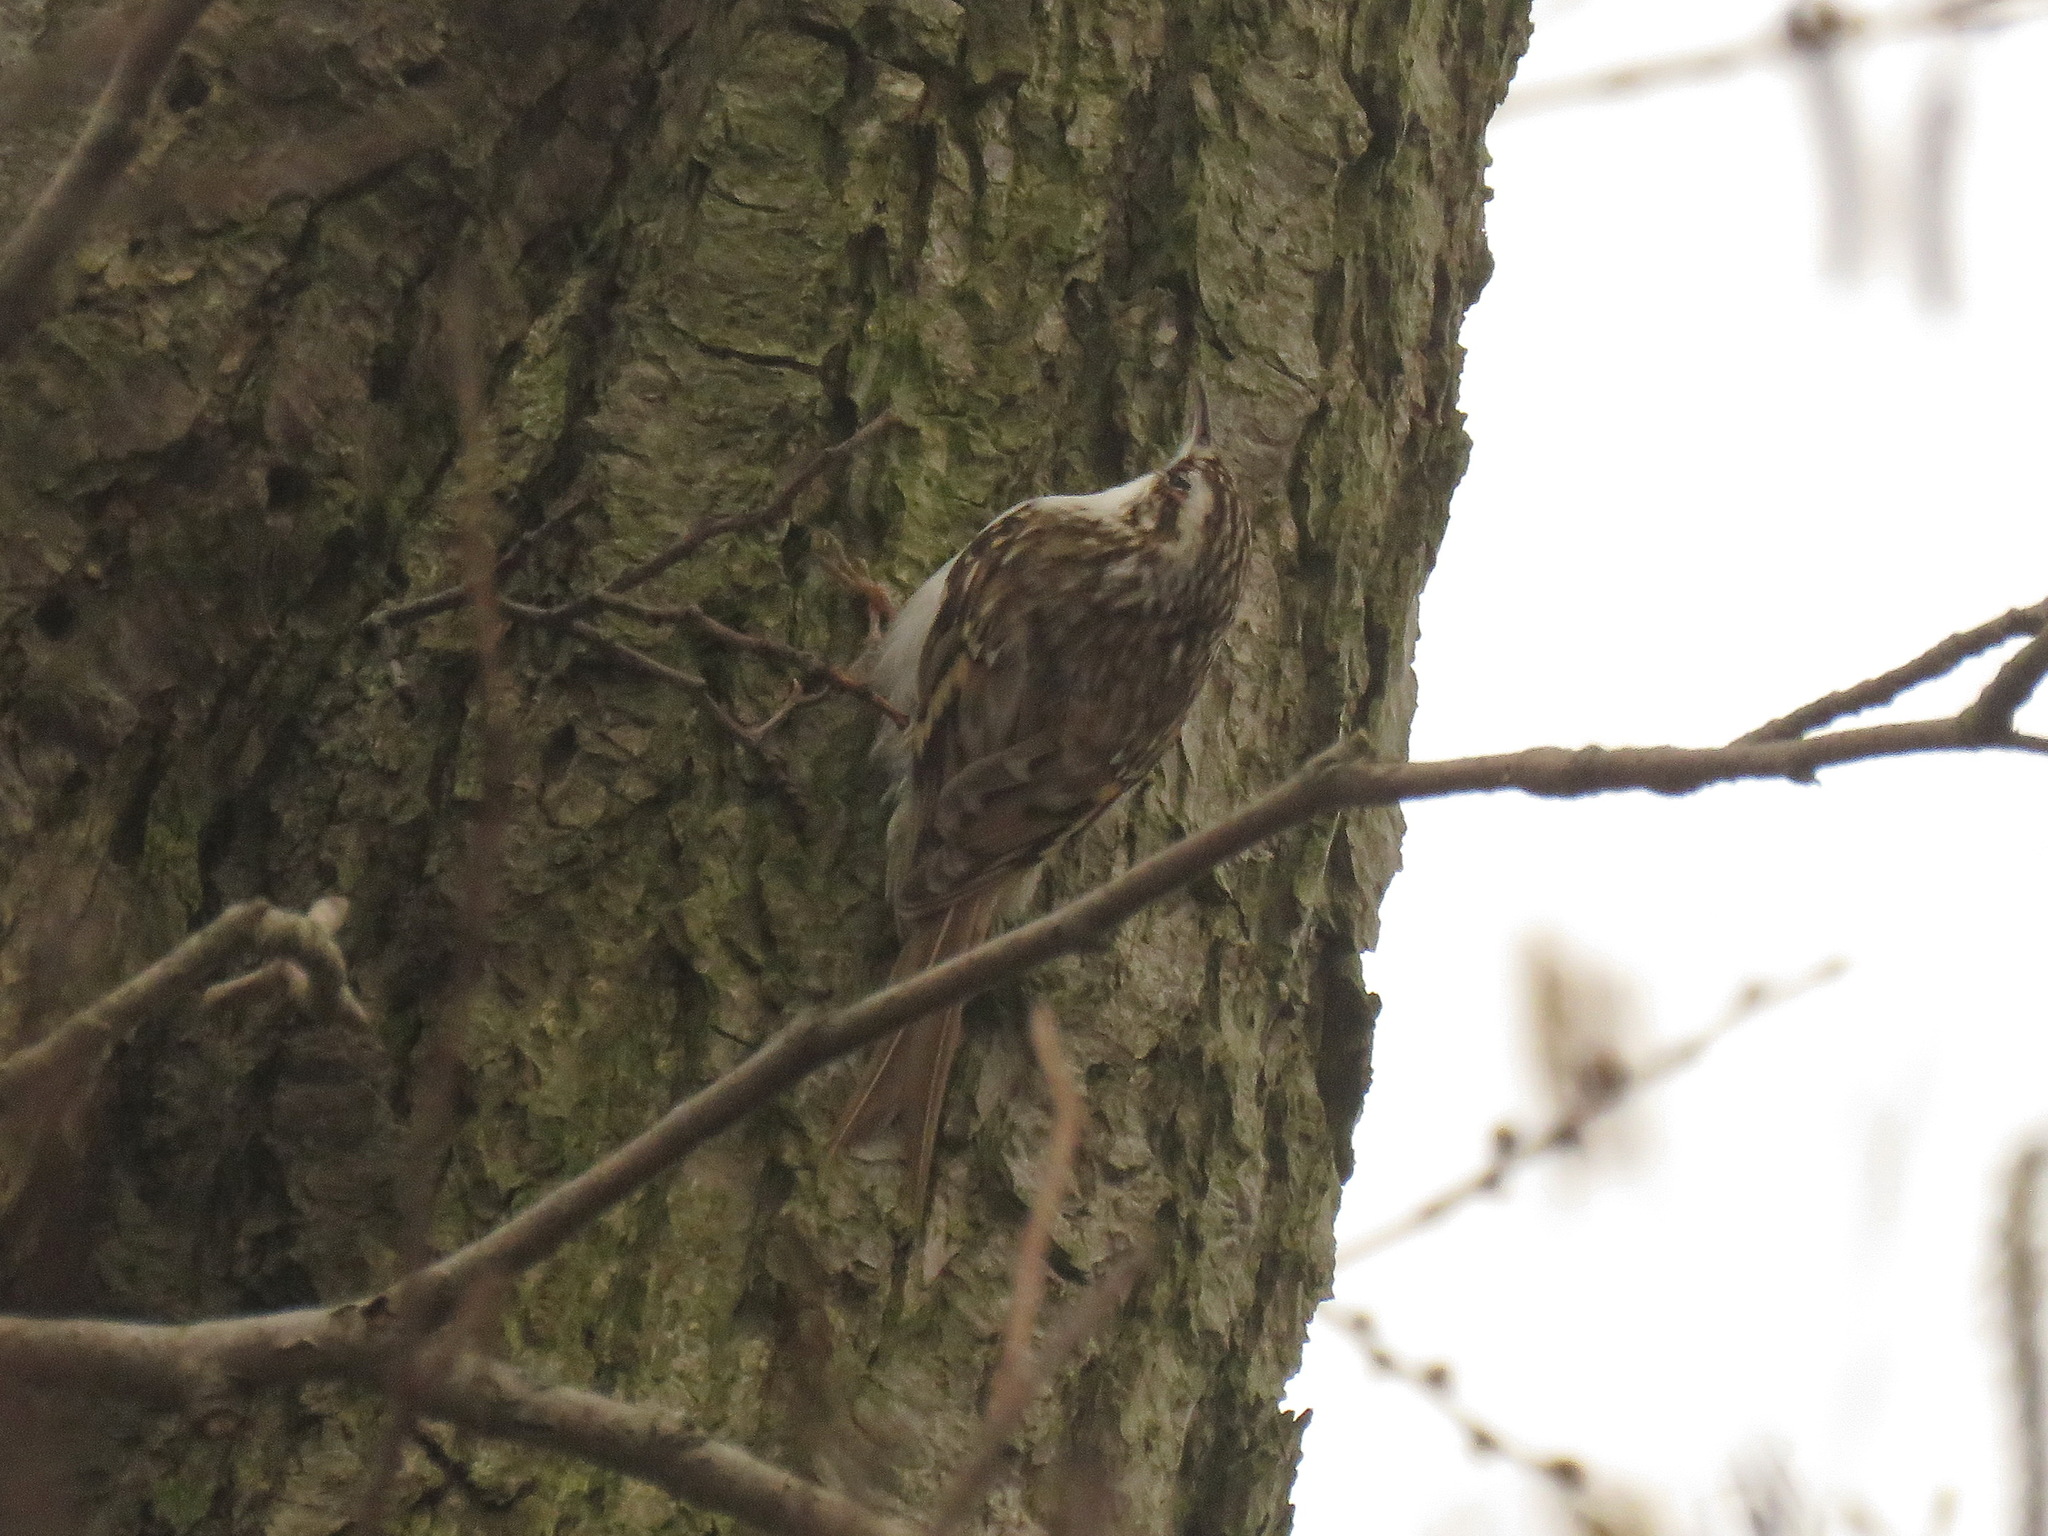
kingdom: Animalia
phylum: Chordata
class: Aves
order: Passeriformes
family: Certhiidae
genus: Certhia
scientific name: Certhia familiaris
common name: Eurasian treecreeper
